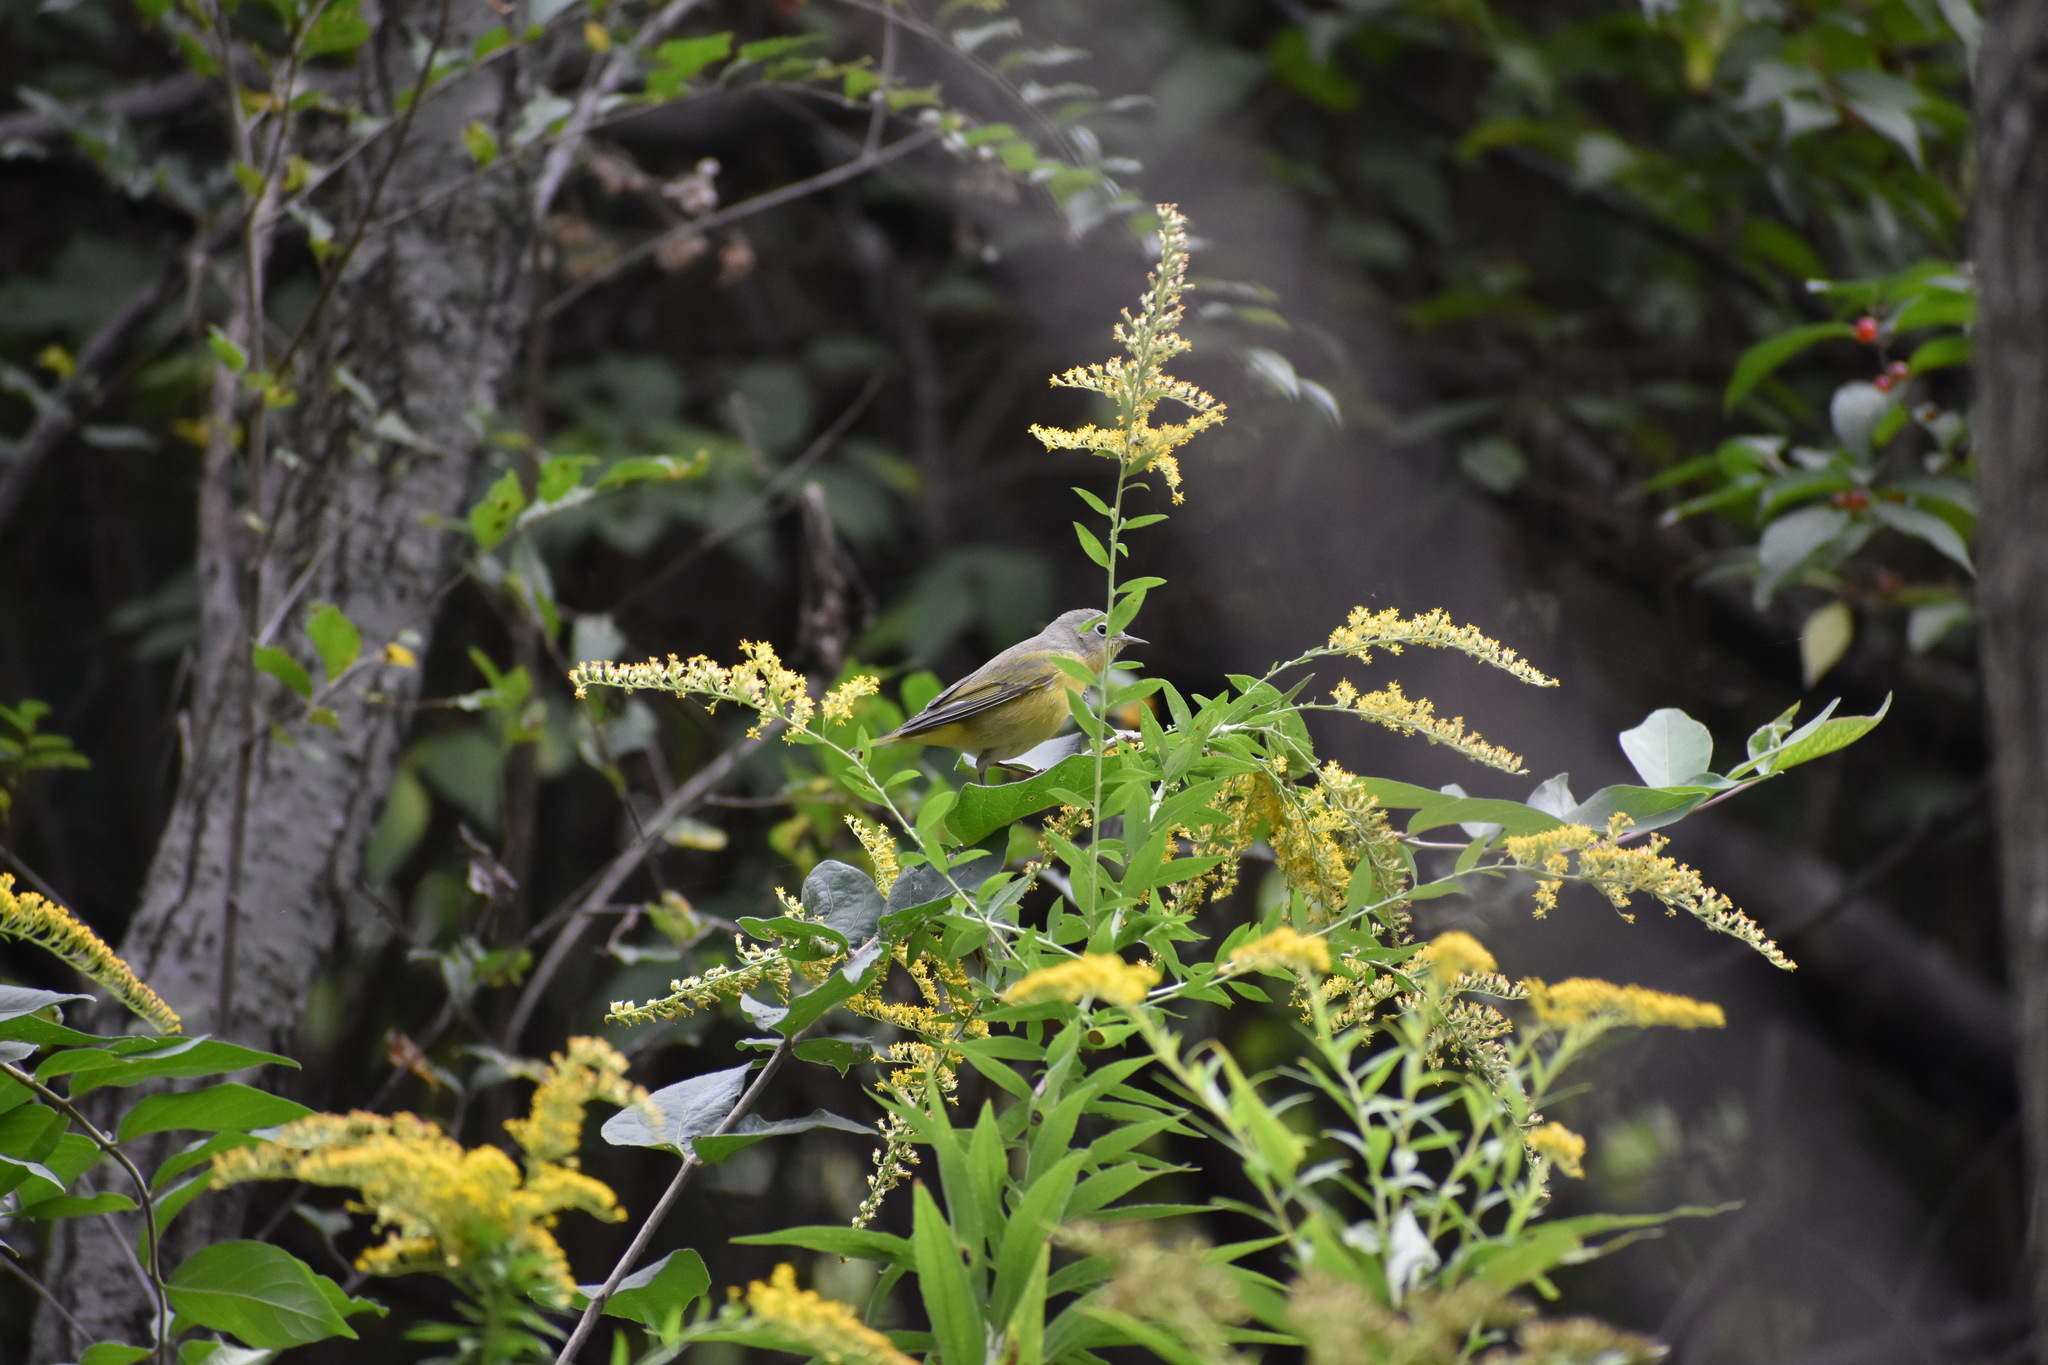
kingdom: Animalia
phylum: Chordata
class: Aves
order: Passeriformes
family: Parulidae
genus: Leiothlypis
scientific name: Leiothlypis ruficapilla
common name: Nashville warbler
